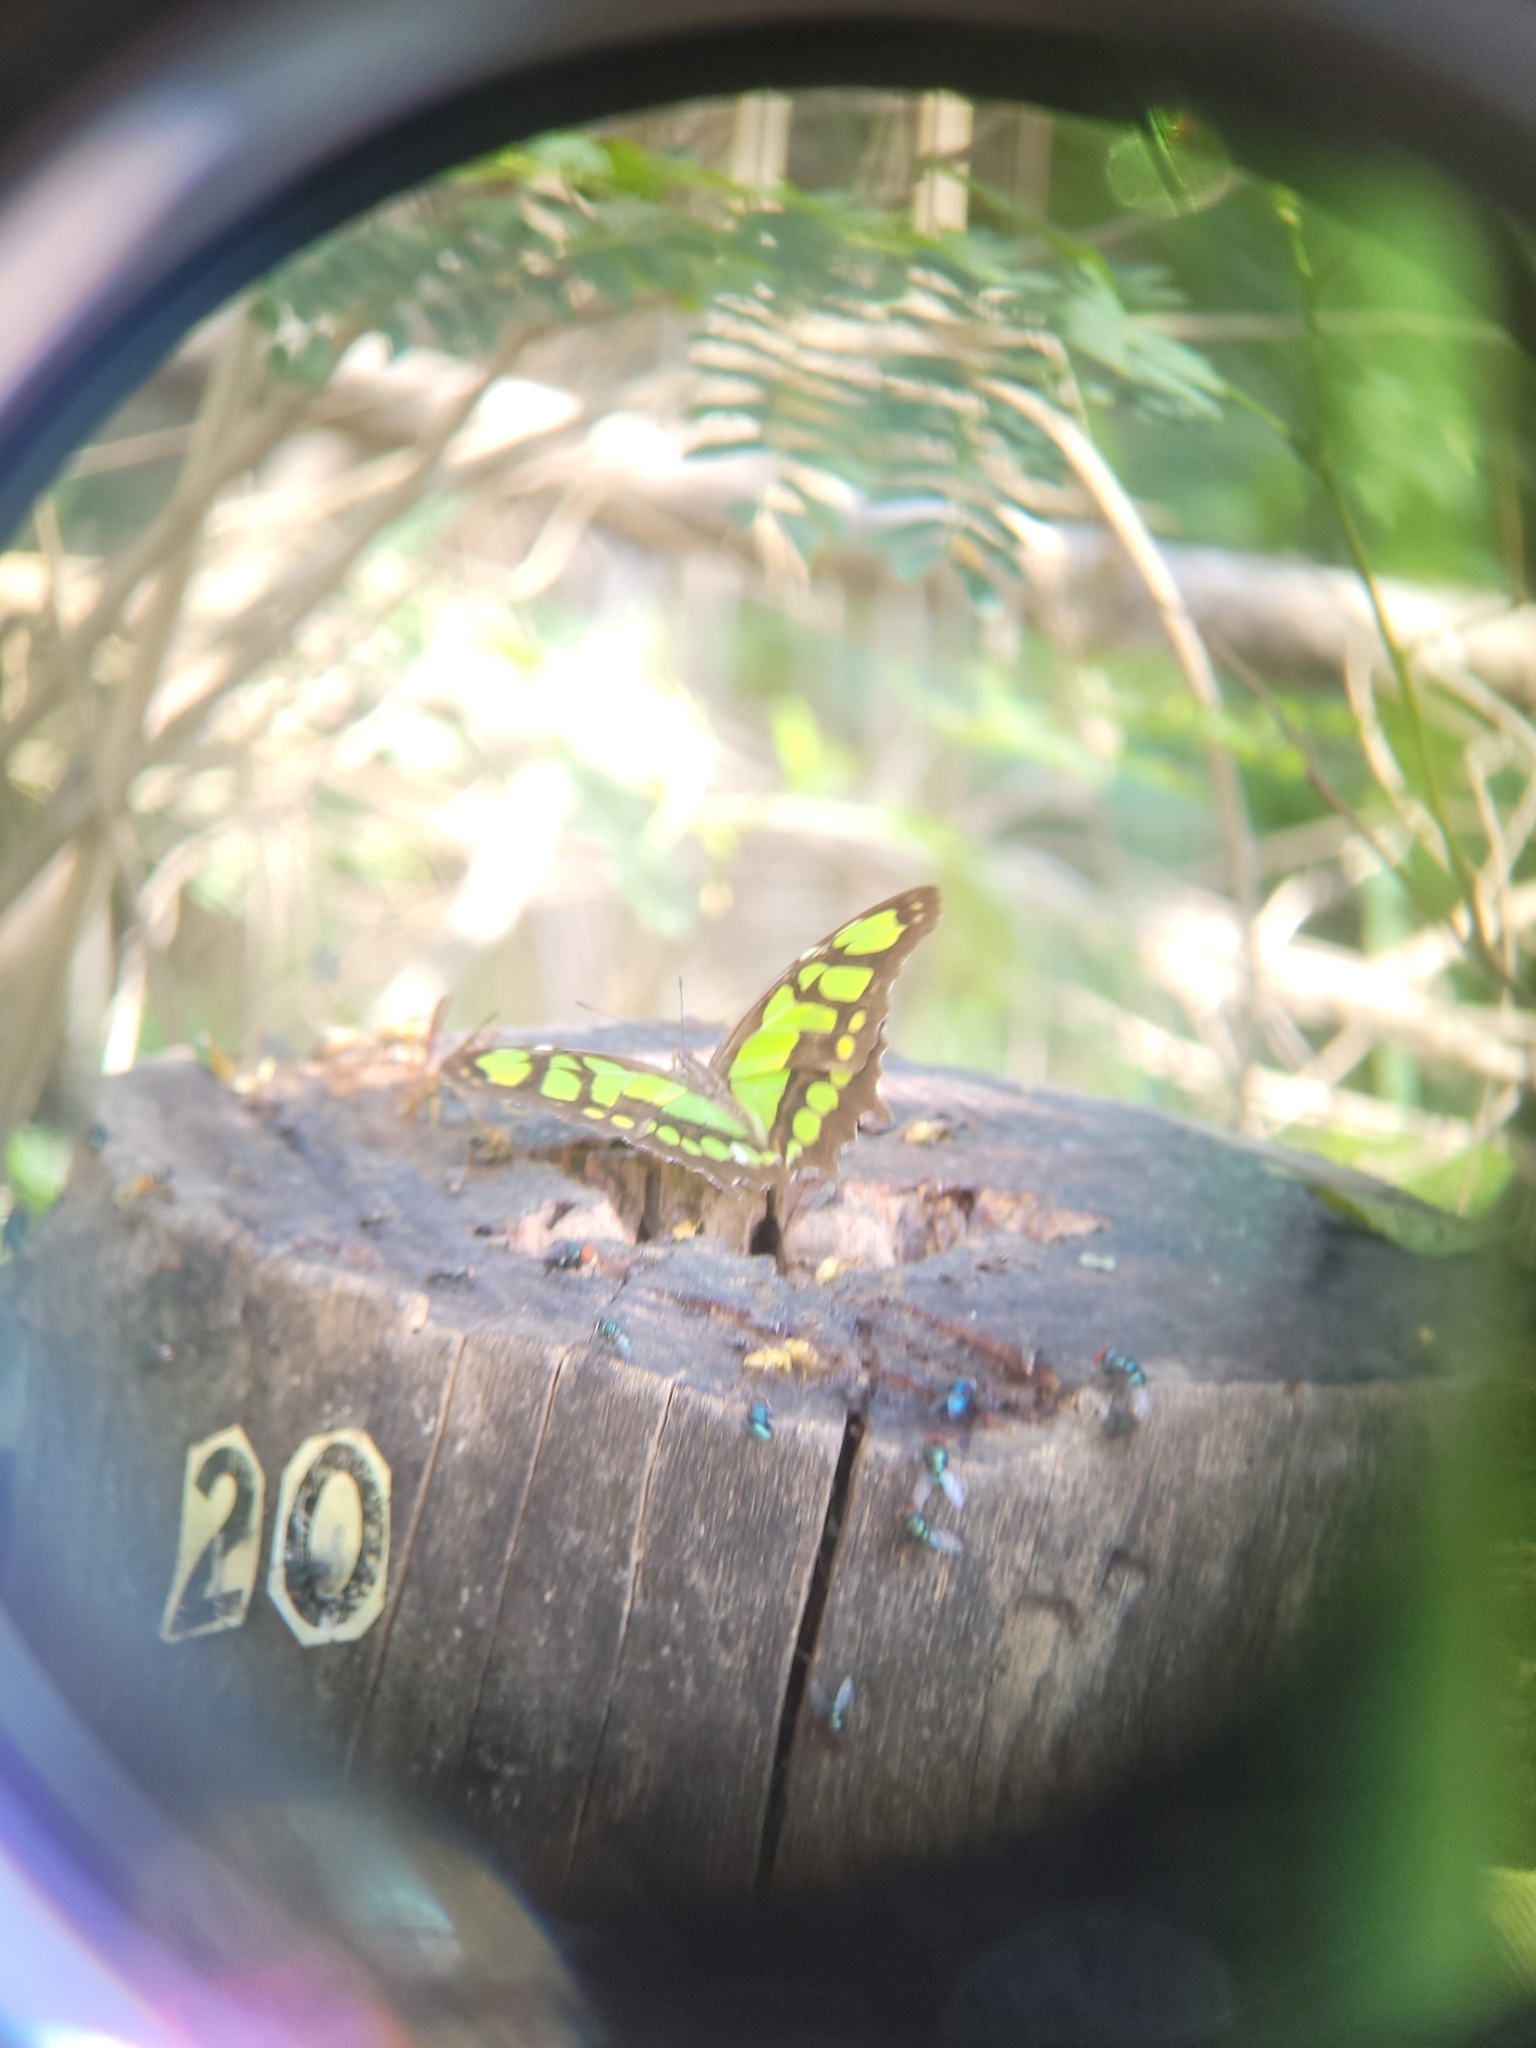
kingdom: Animalia
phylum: Arthropoda
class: Insecta
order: Lepidoptera
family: Nymphalidae
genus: Siproeta
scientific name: Siproeta stelenes
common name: Malachite
